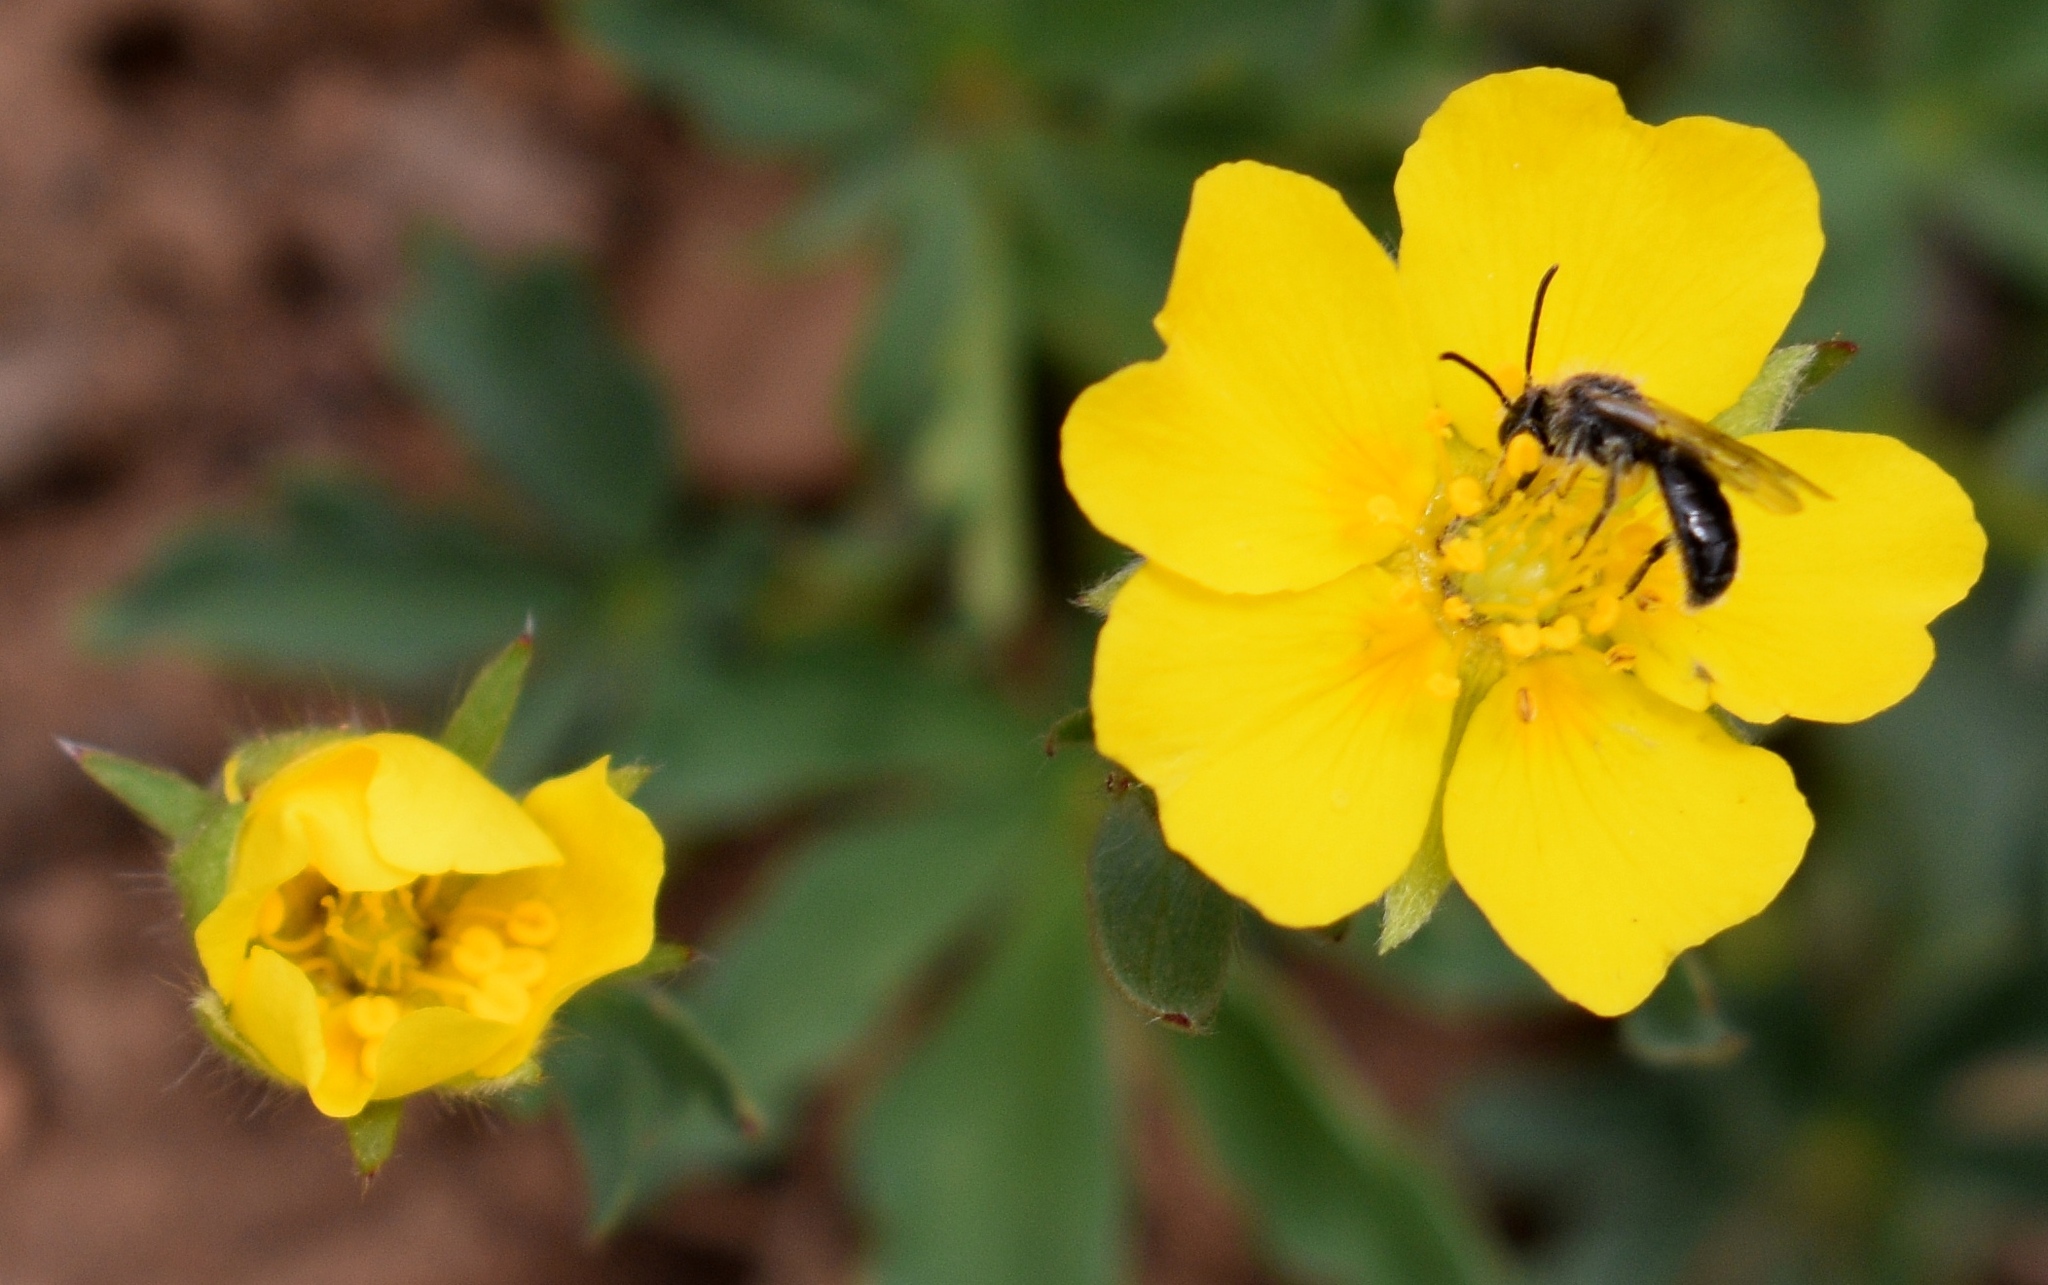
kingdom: Animalia
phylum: Arthropoda
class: Insecta
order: Hymenoptera
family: Andrenidae
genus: Panurginus
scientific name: Panurginus
